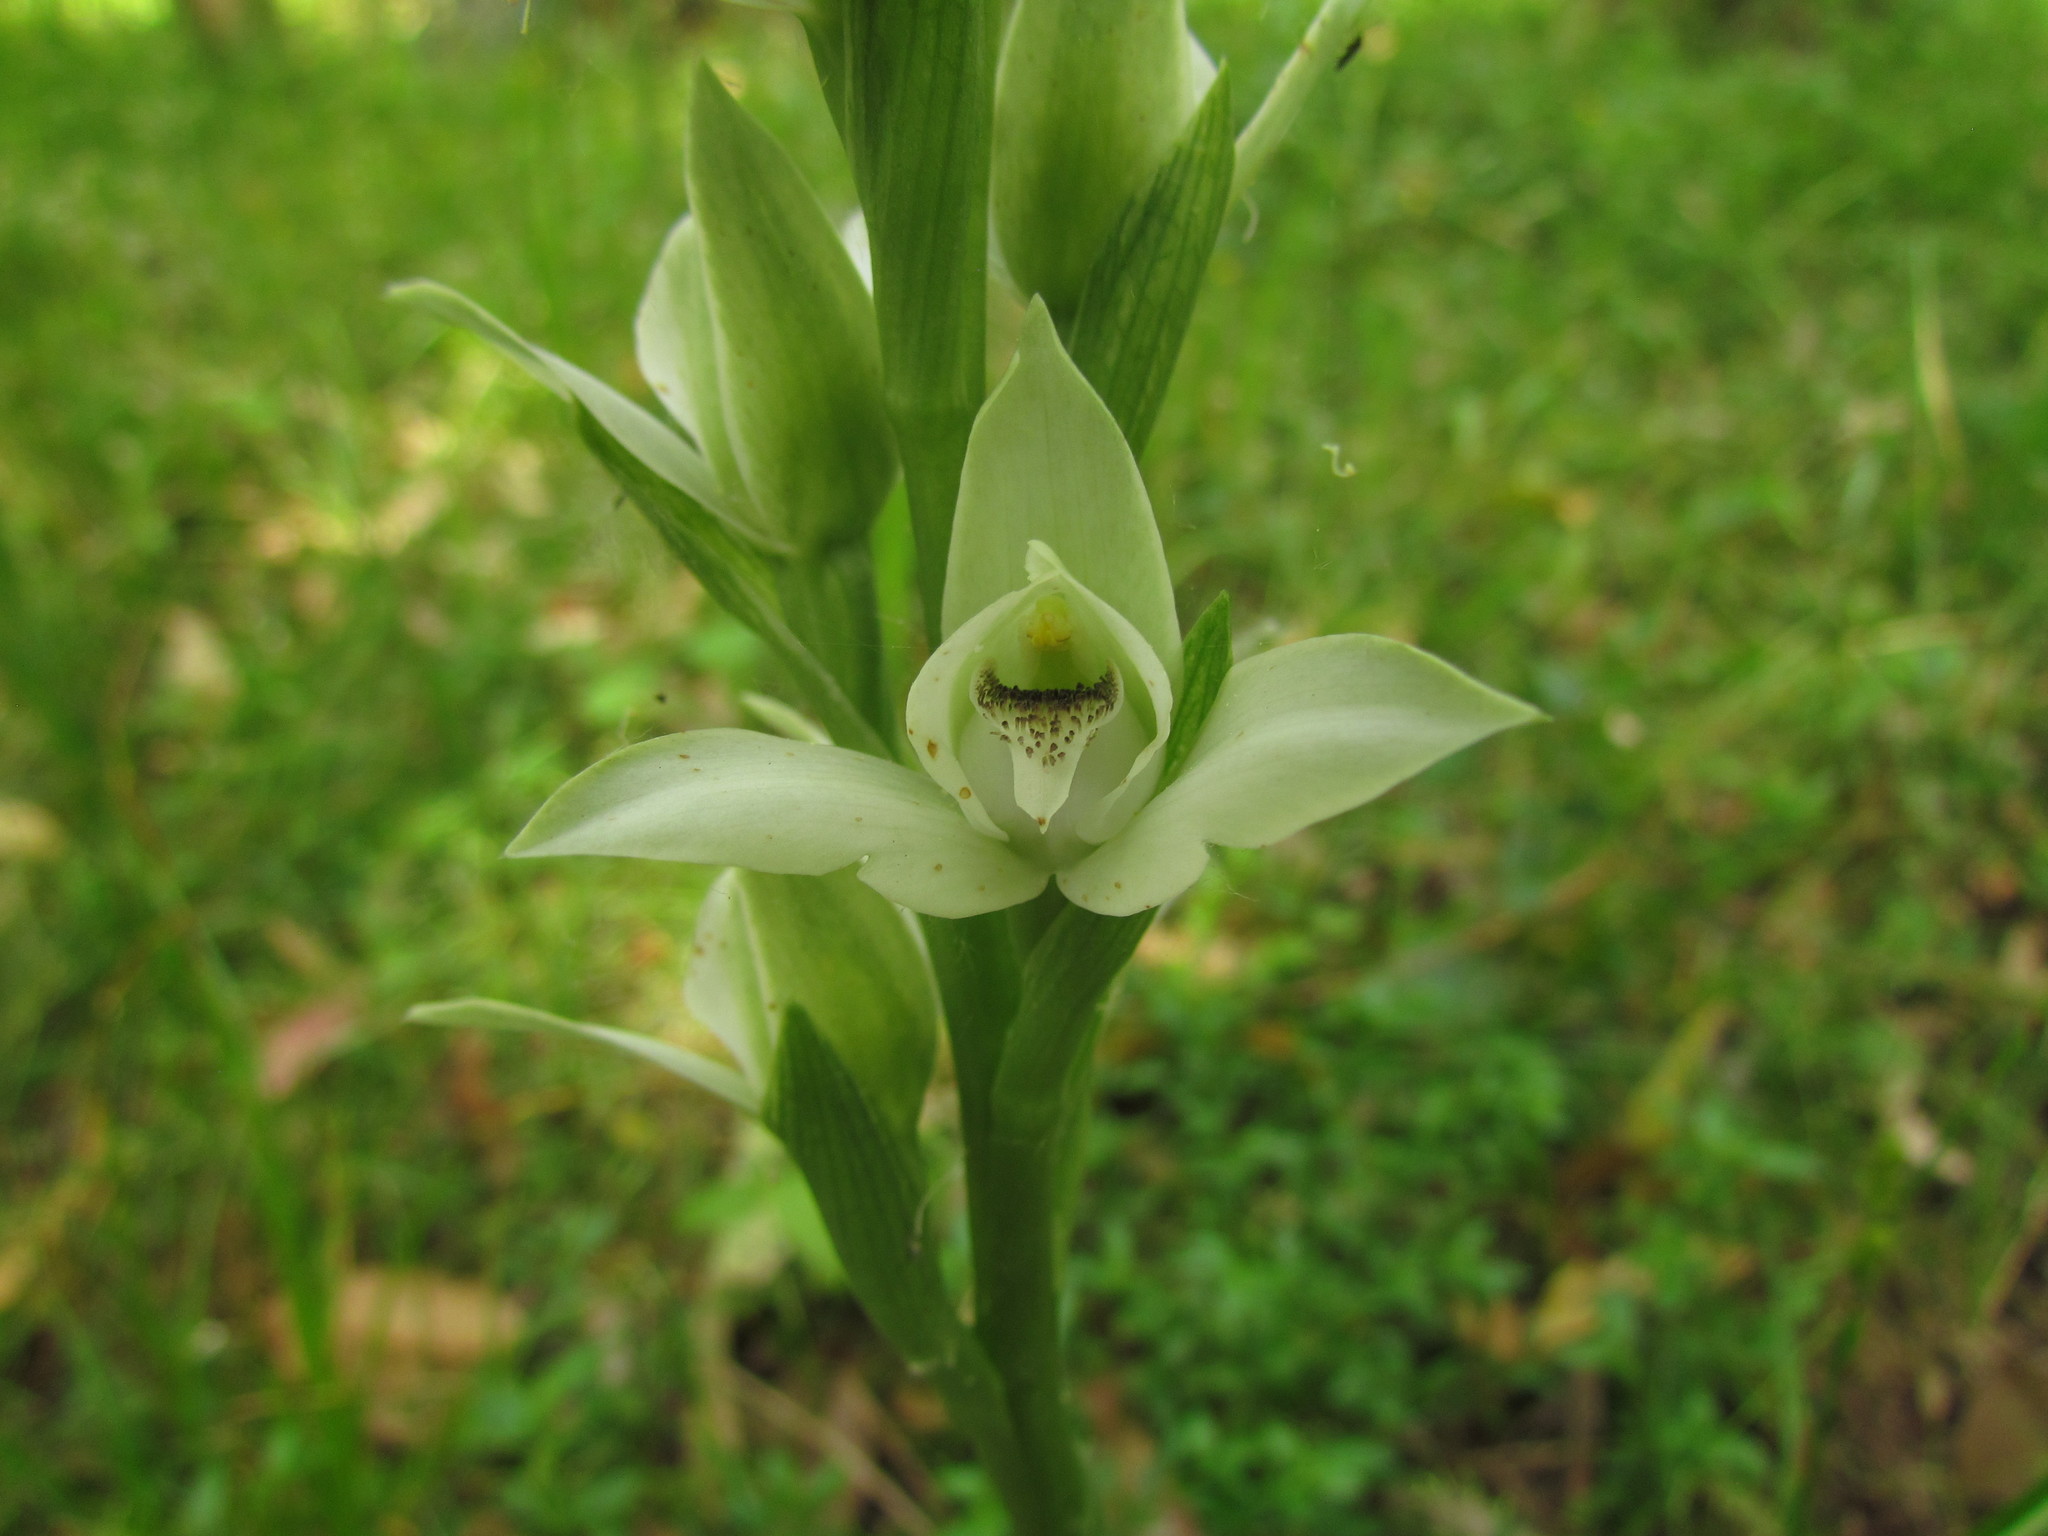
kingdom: Plantae
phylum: Tracheophyta
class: Liliopsida
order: Asparagales
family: Orchidaceae
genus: Chloraea
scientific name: Chloraea membranacea
